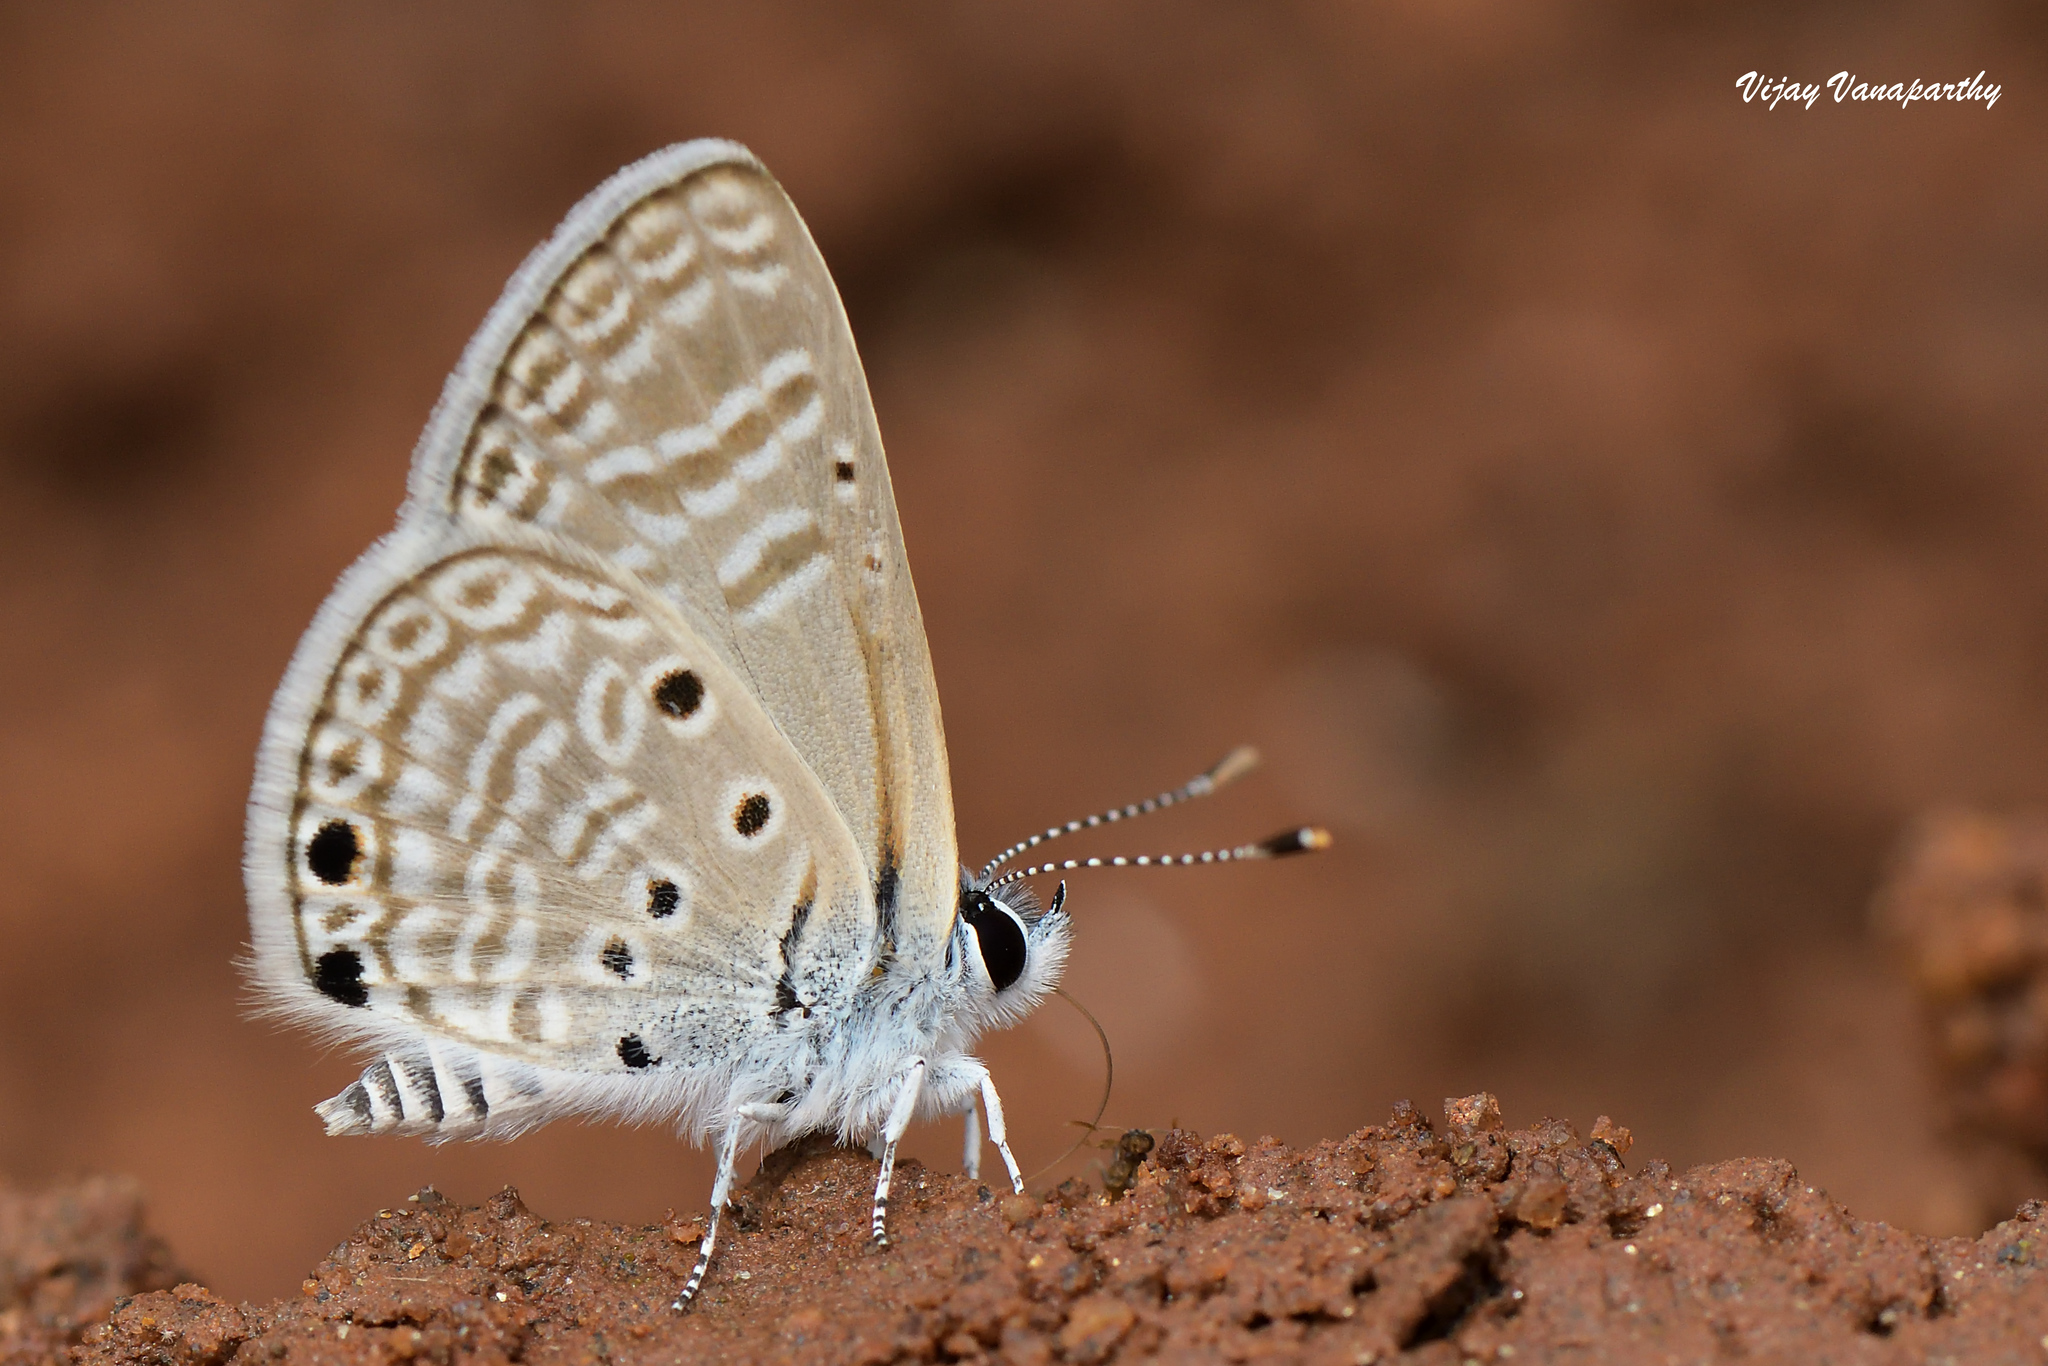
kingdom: Animalia
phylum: Arthropoda
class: Insecta
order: Lepidoptera
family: Lycaenidae
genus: Azanus
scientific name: Azanus ubaldus
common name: Desert babul blue
